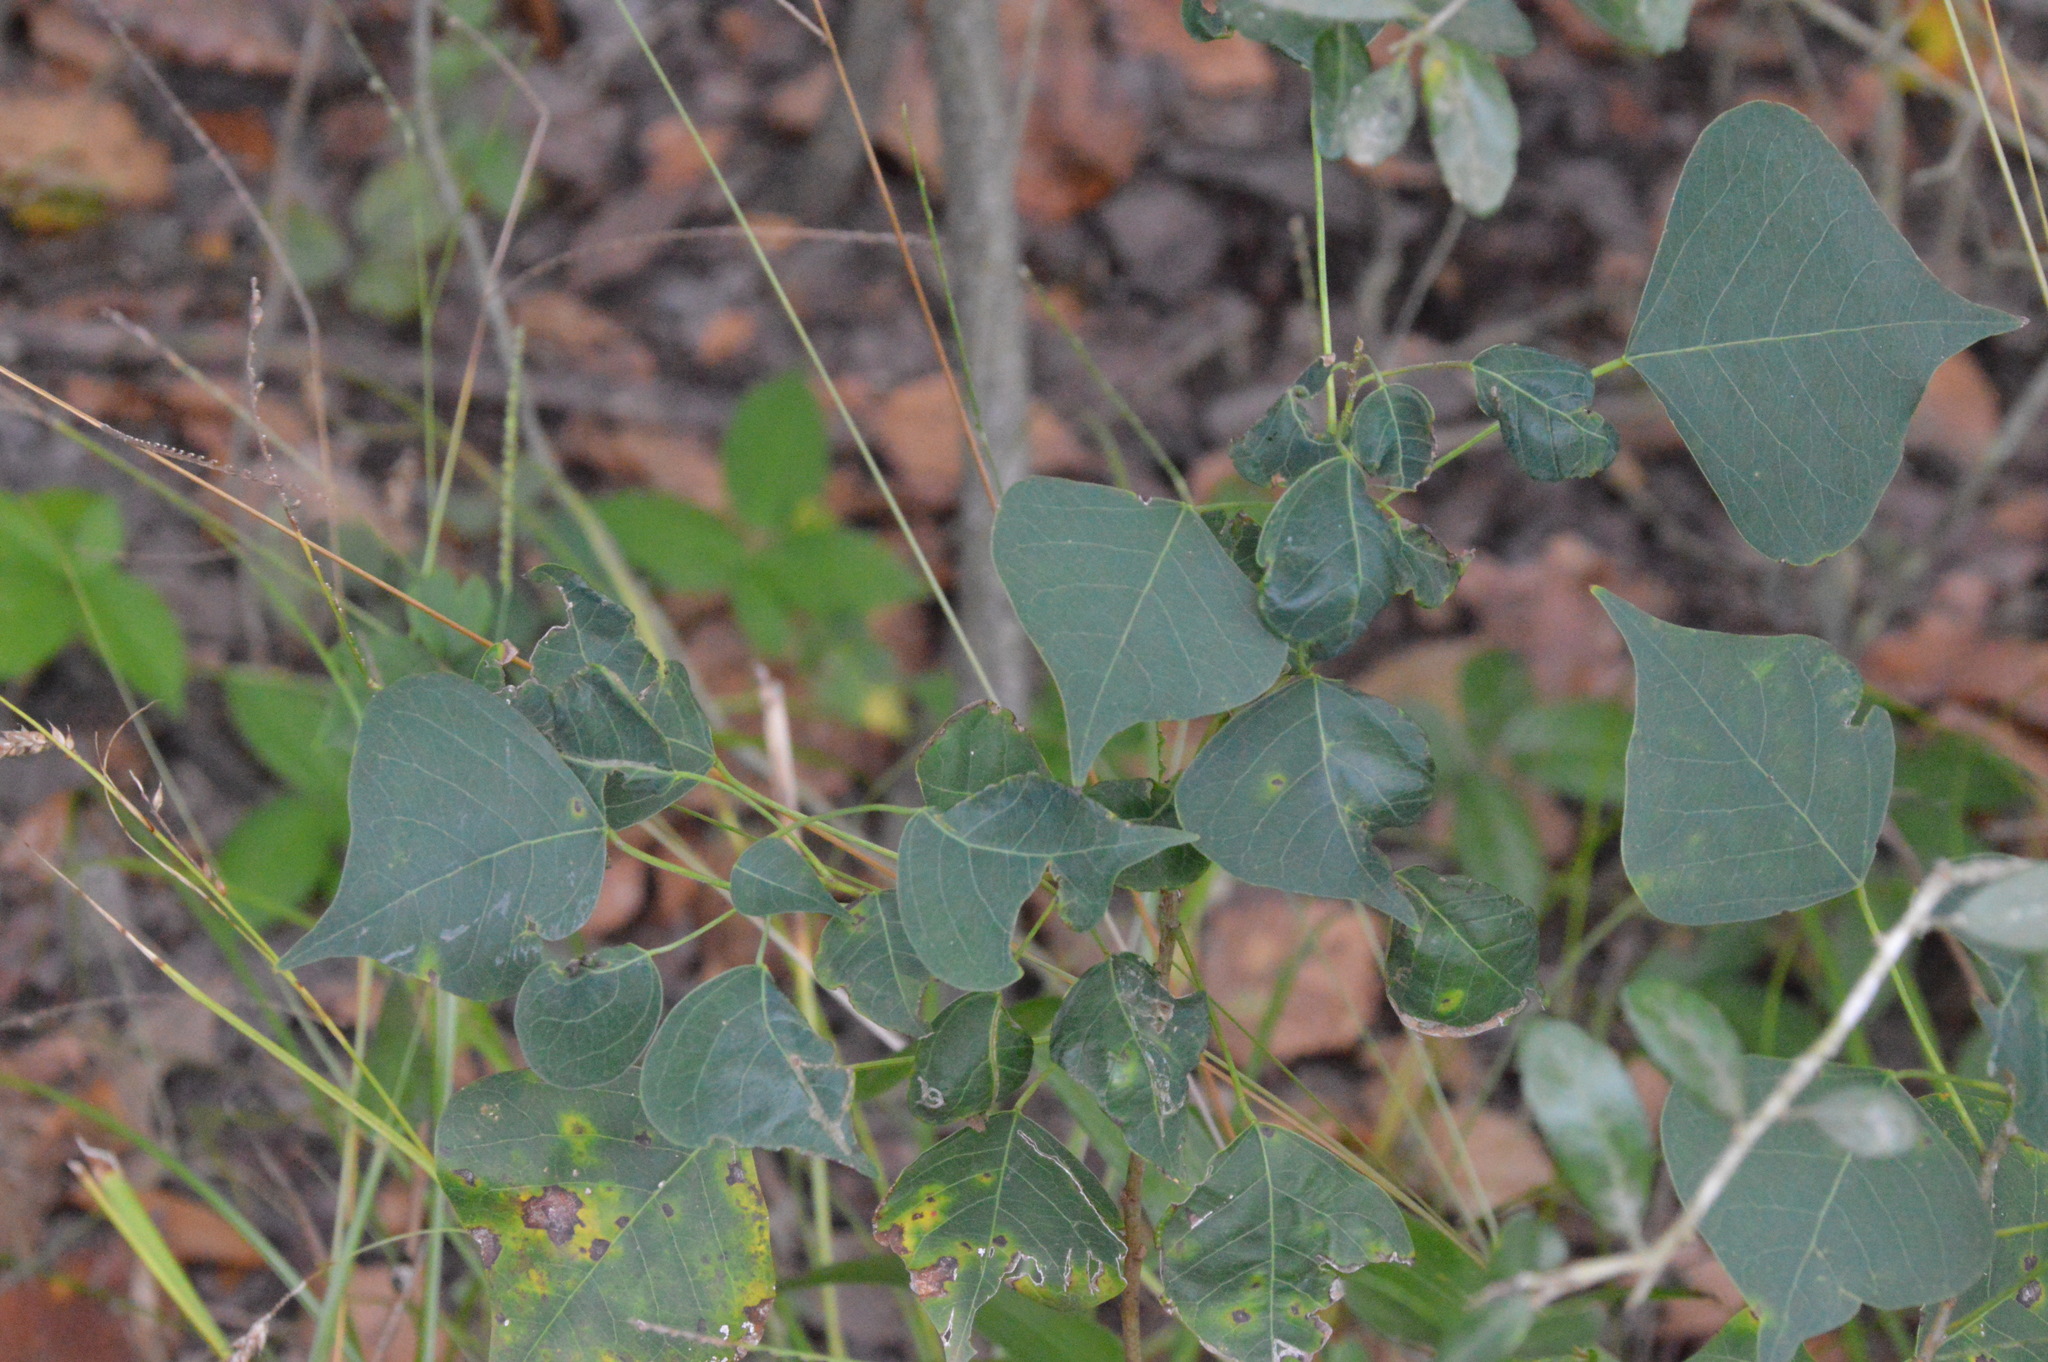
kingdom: Plantae
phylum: Tracheophyta
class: Magnoliopsida
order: Malpighiales
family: Euphorbiaceae
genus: Triadica
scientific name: Triadica sebifera
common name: Chinese tallow
